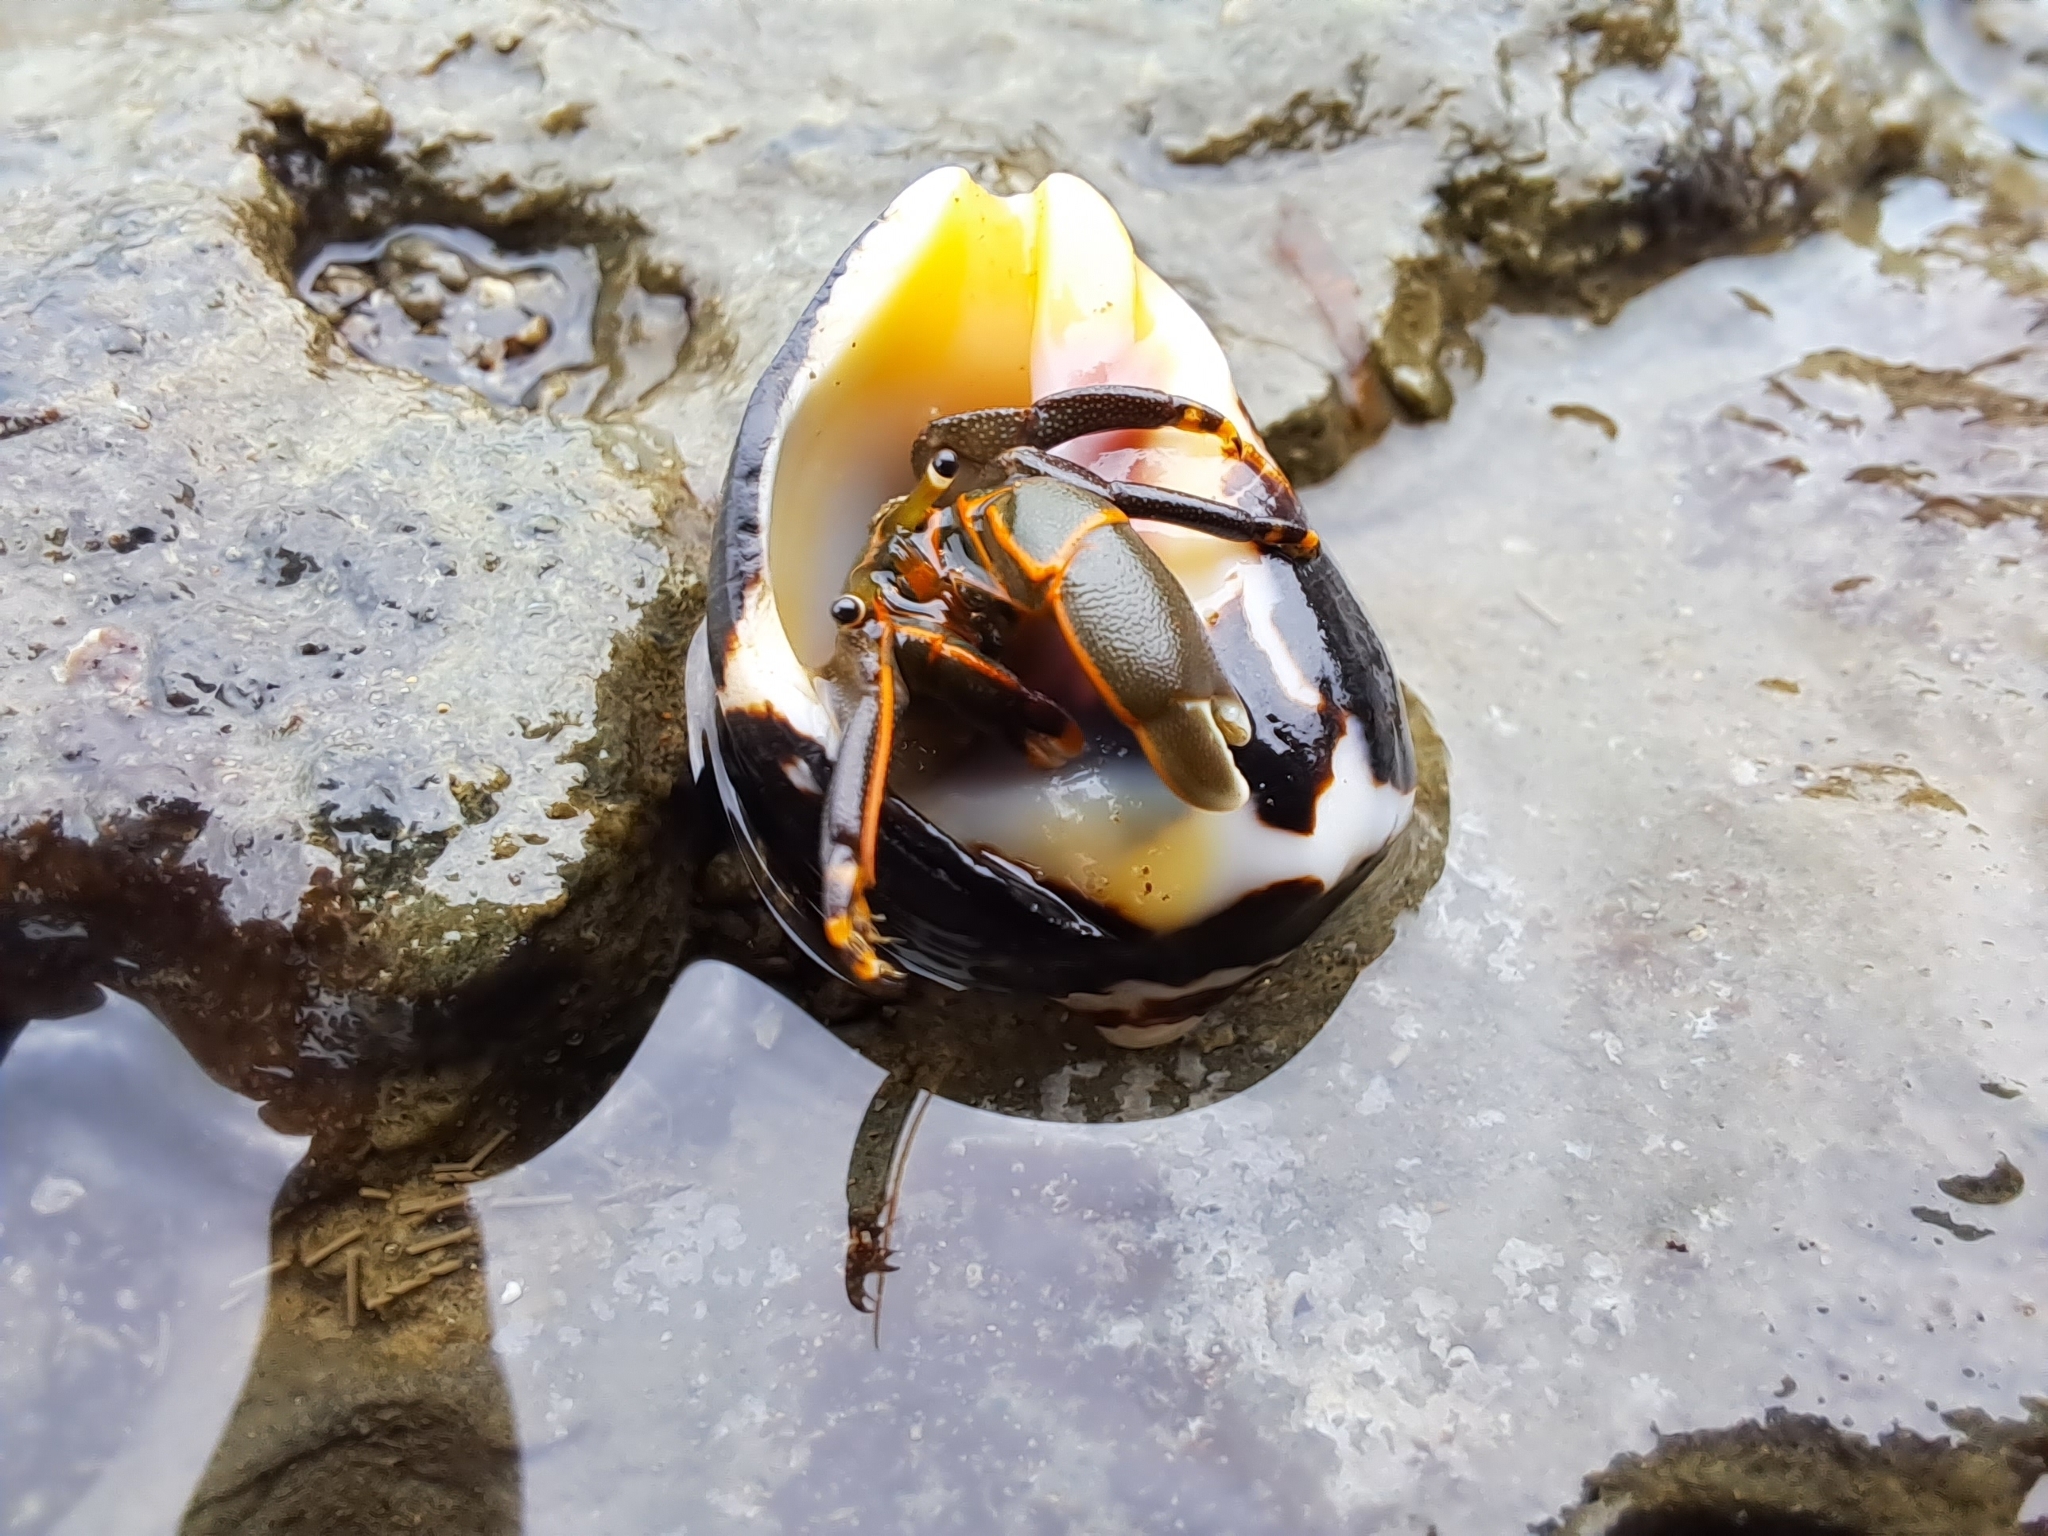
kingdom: Animalia
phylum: Arthropoda
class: Malacostraca
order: Decapoda
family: Diogenidae
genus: Calcinus
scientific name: Calcinus obscurus
